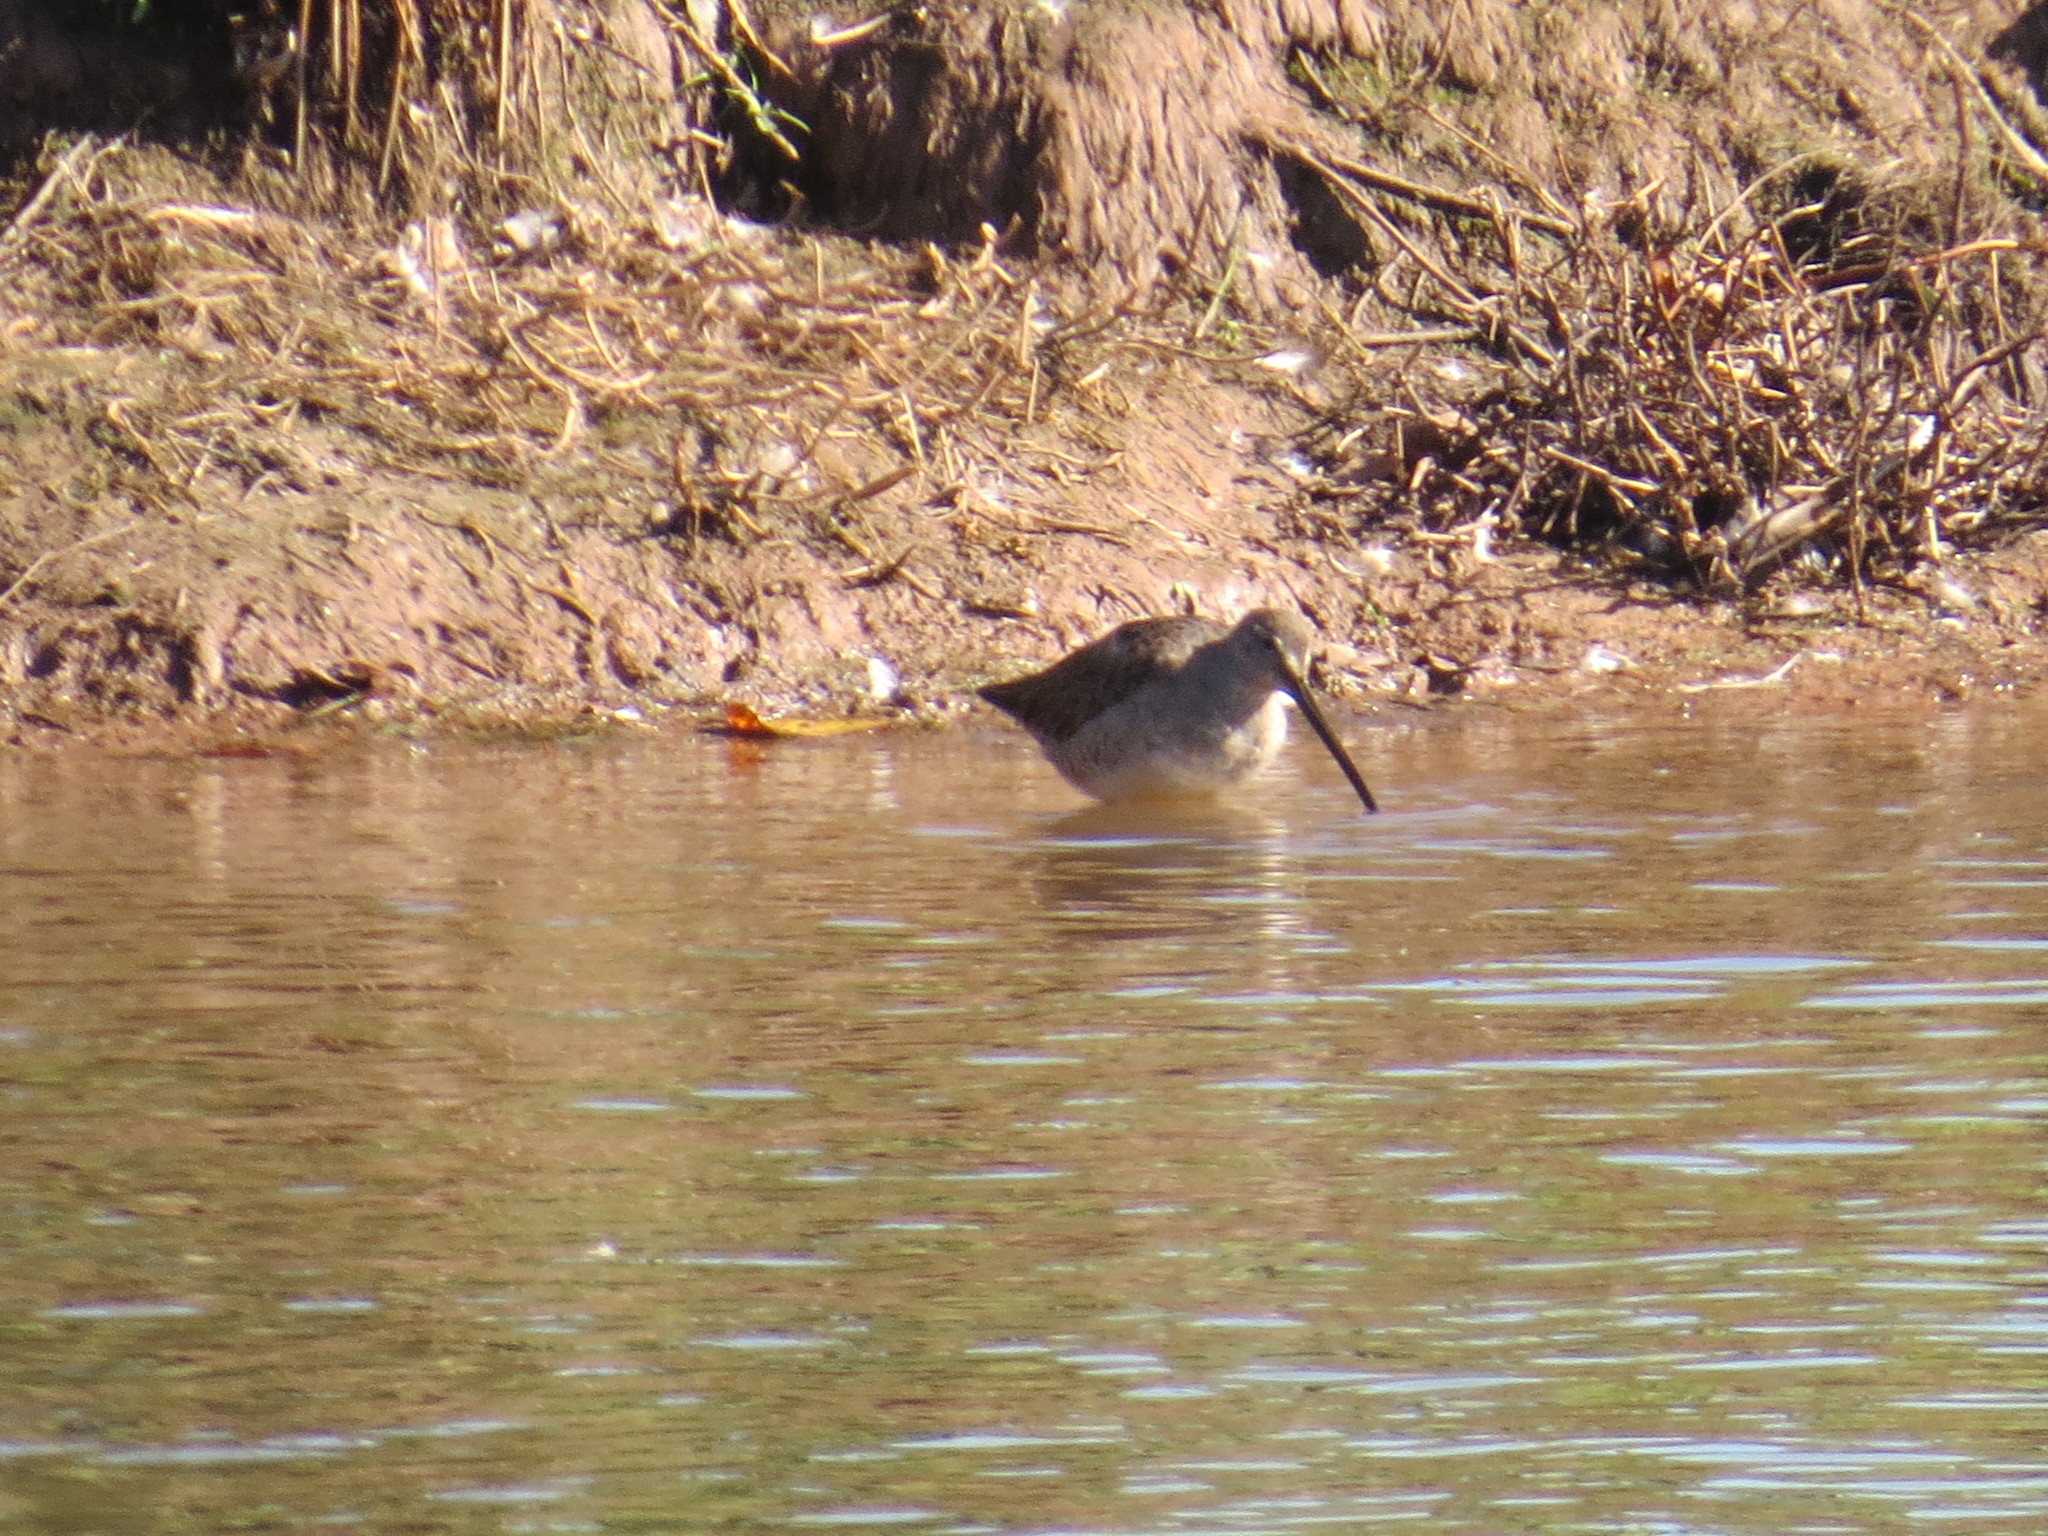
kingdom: Animalia
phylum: Chordata
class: Aves
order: Charadriiformes
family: Scolopacidae
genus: Limnodromus
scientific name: Limnodromus scolopaceus
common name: Long-billed dowitcher
